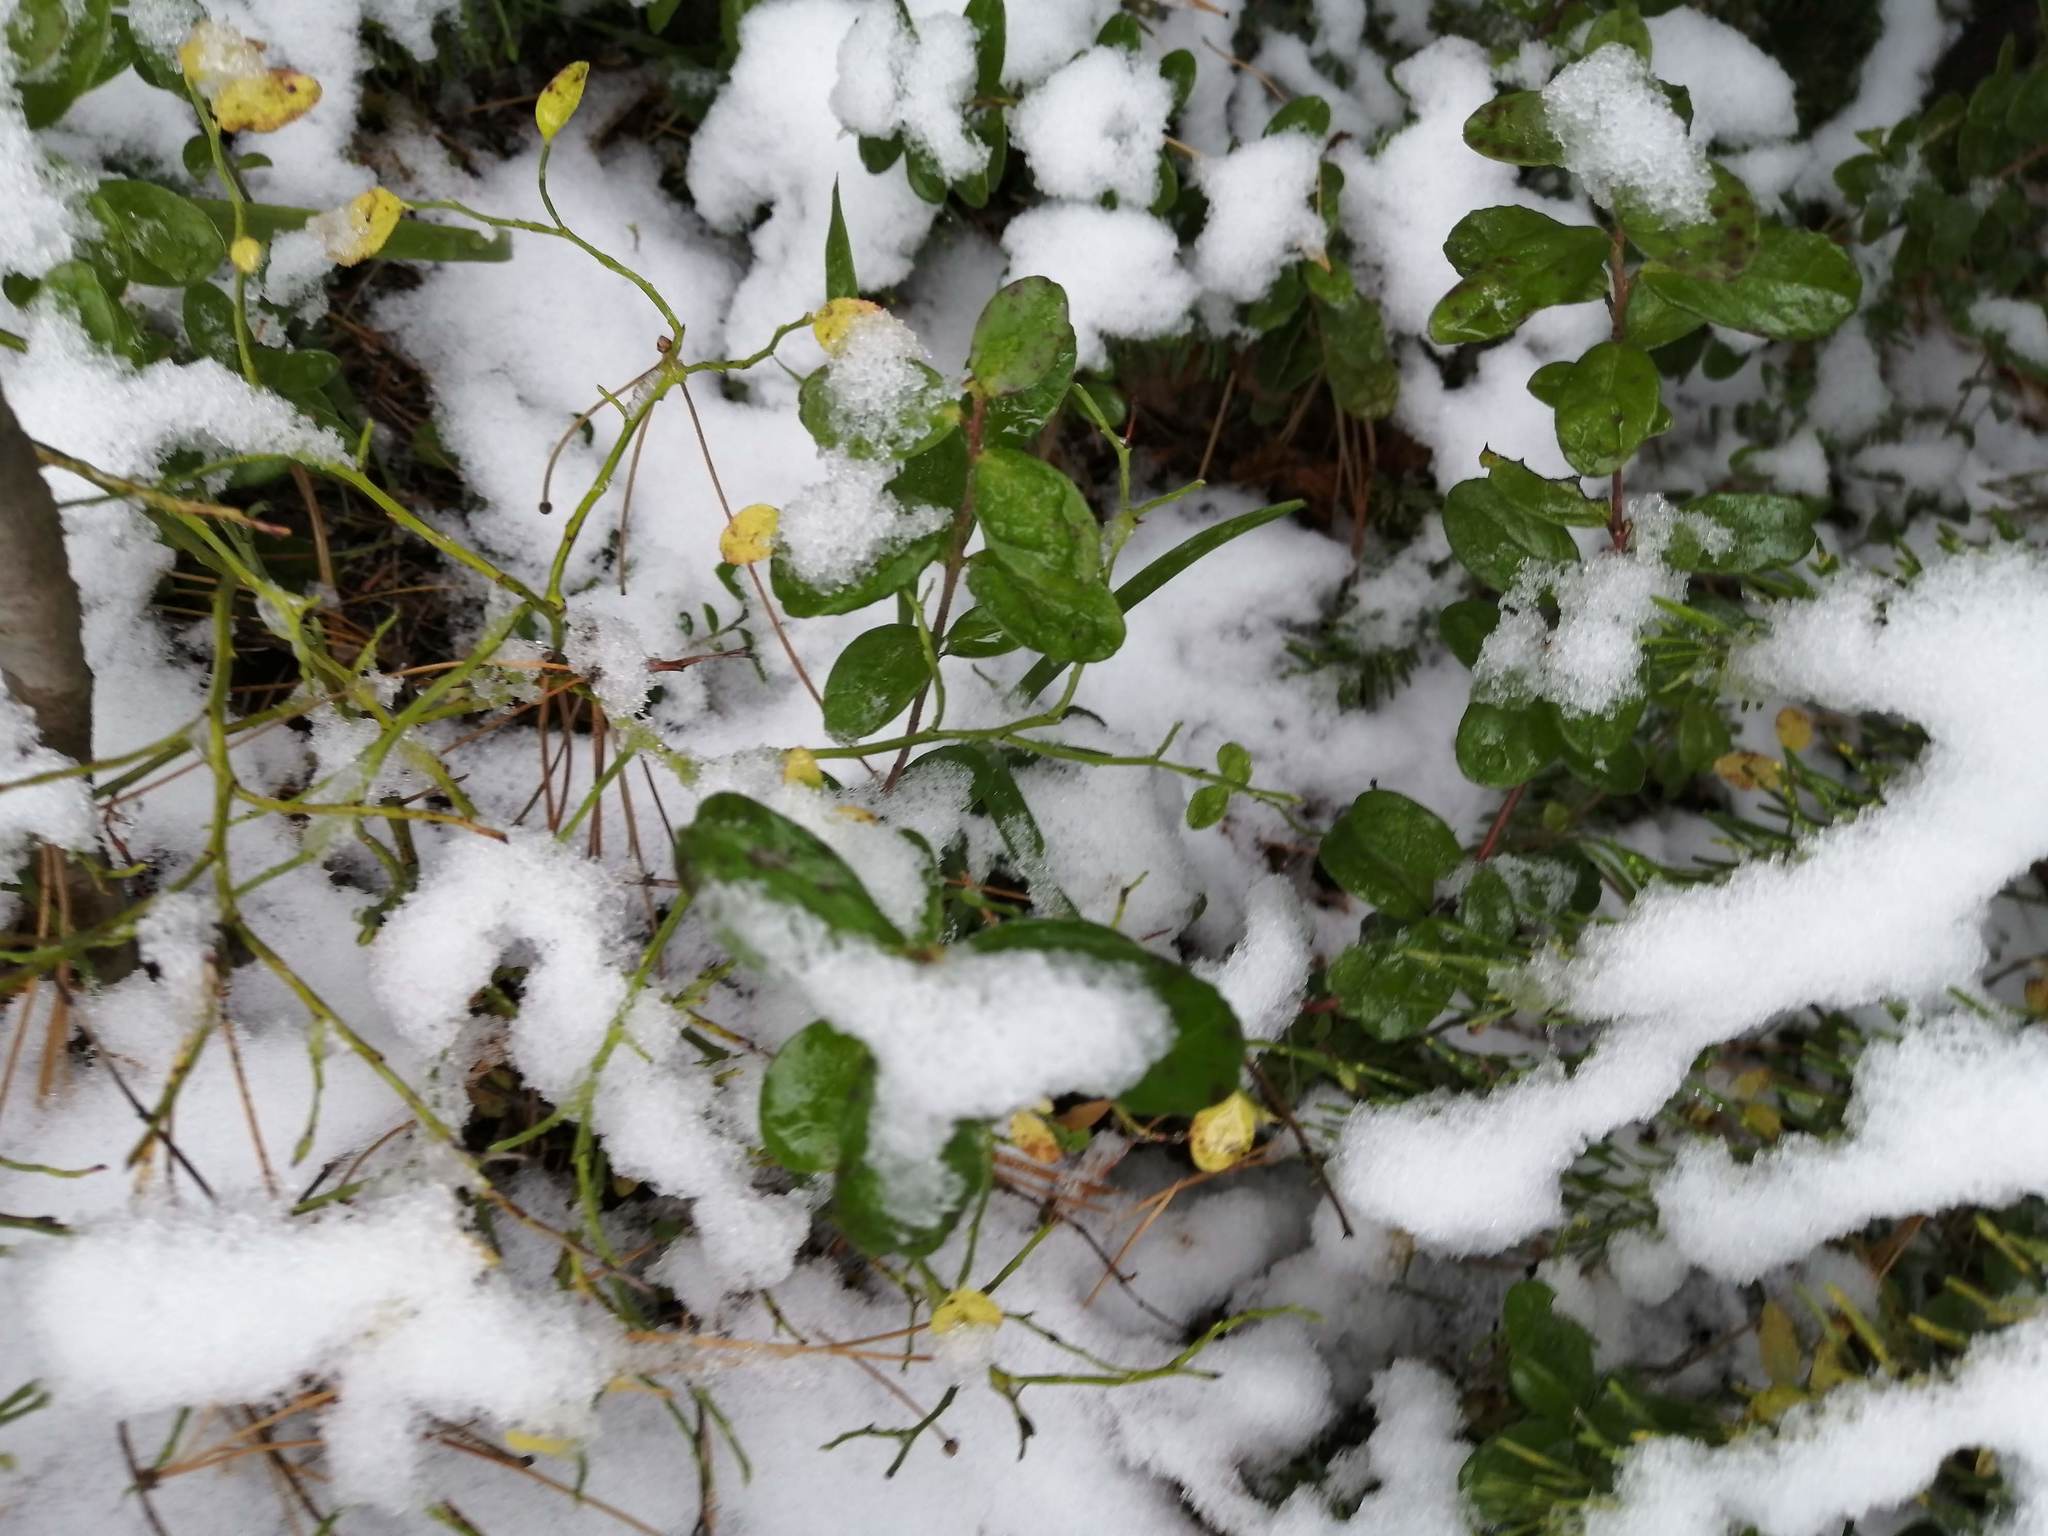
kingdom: Plantae
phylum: Tracheophyta
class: Magnoliopsida
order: Ericales
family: Ericaceae
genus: Vaccinium
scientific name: Vaccinium vitis-idaea
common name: Cowberry
